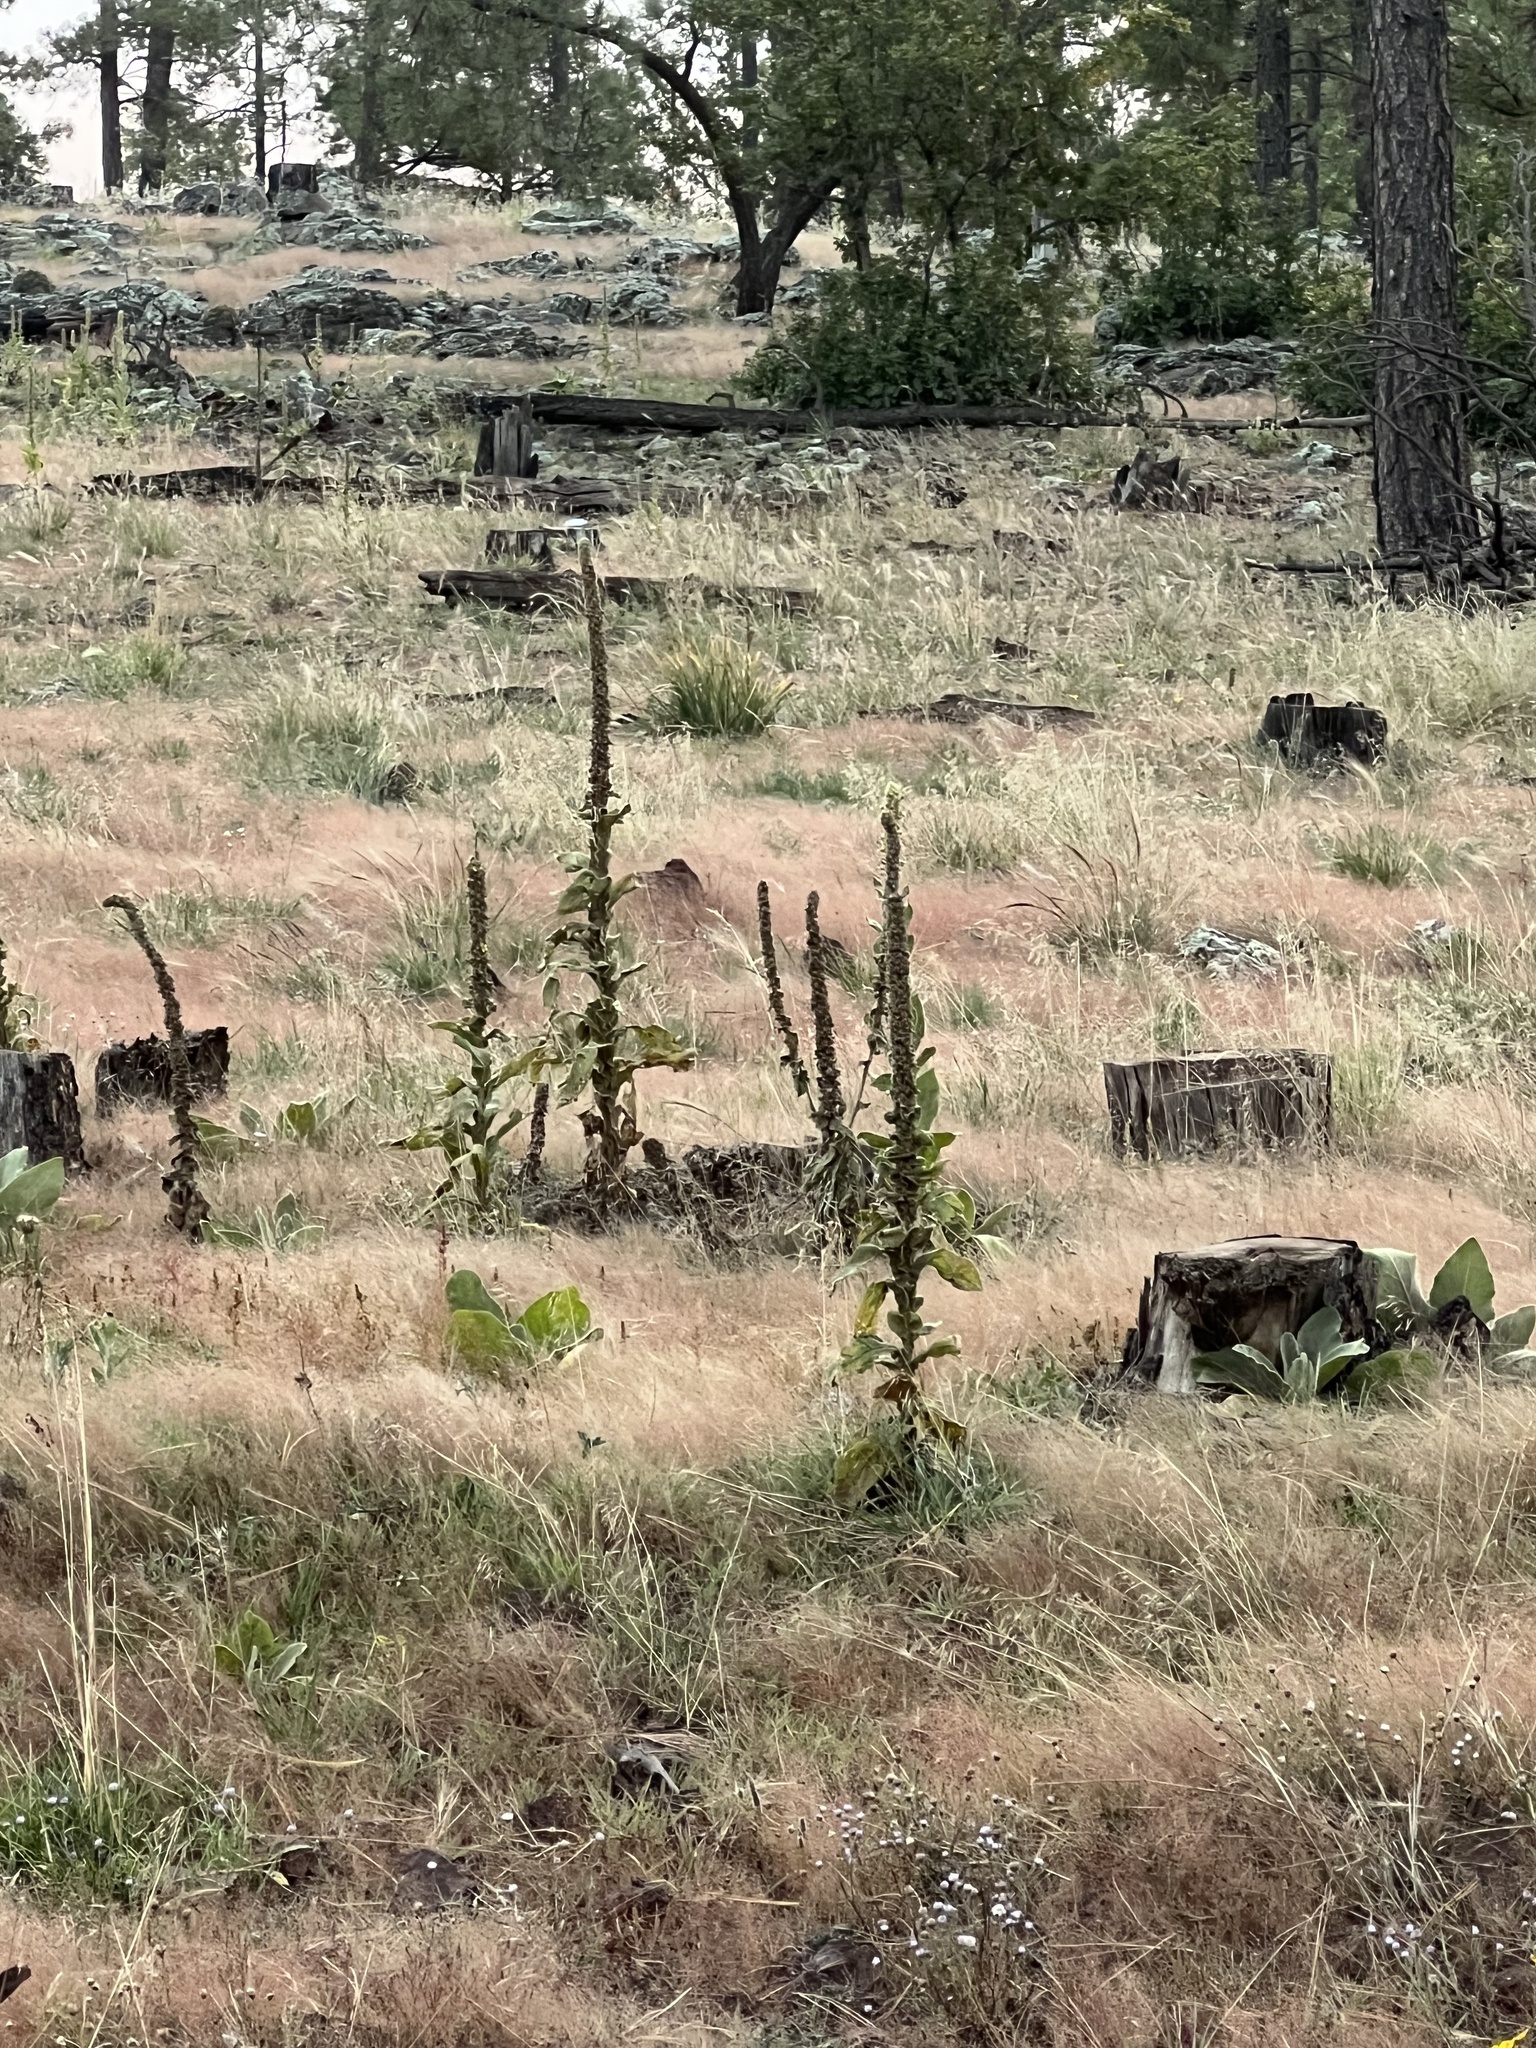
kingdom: Plantae
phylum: Tracheophyta
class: Magnoliopsida
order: Lamiales
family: Scrophulariaceae
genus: Verbascum
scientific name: Verbascum thapsus
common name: Common mullein
